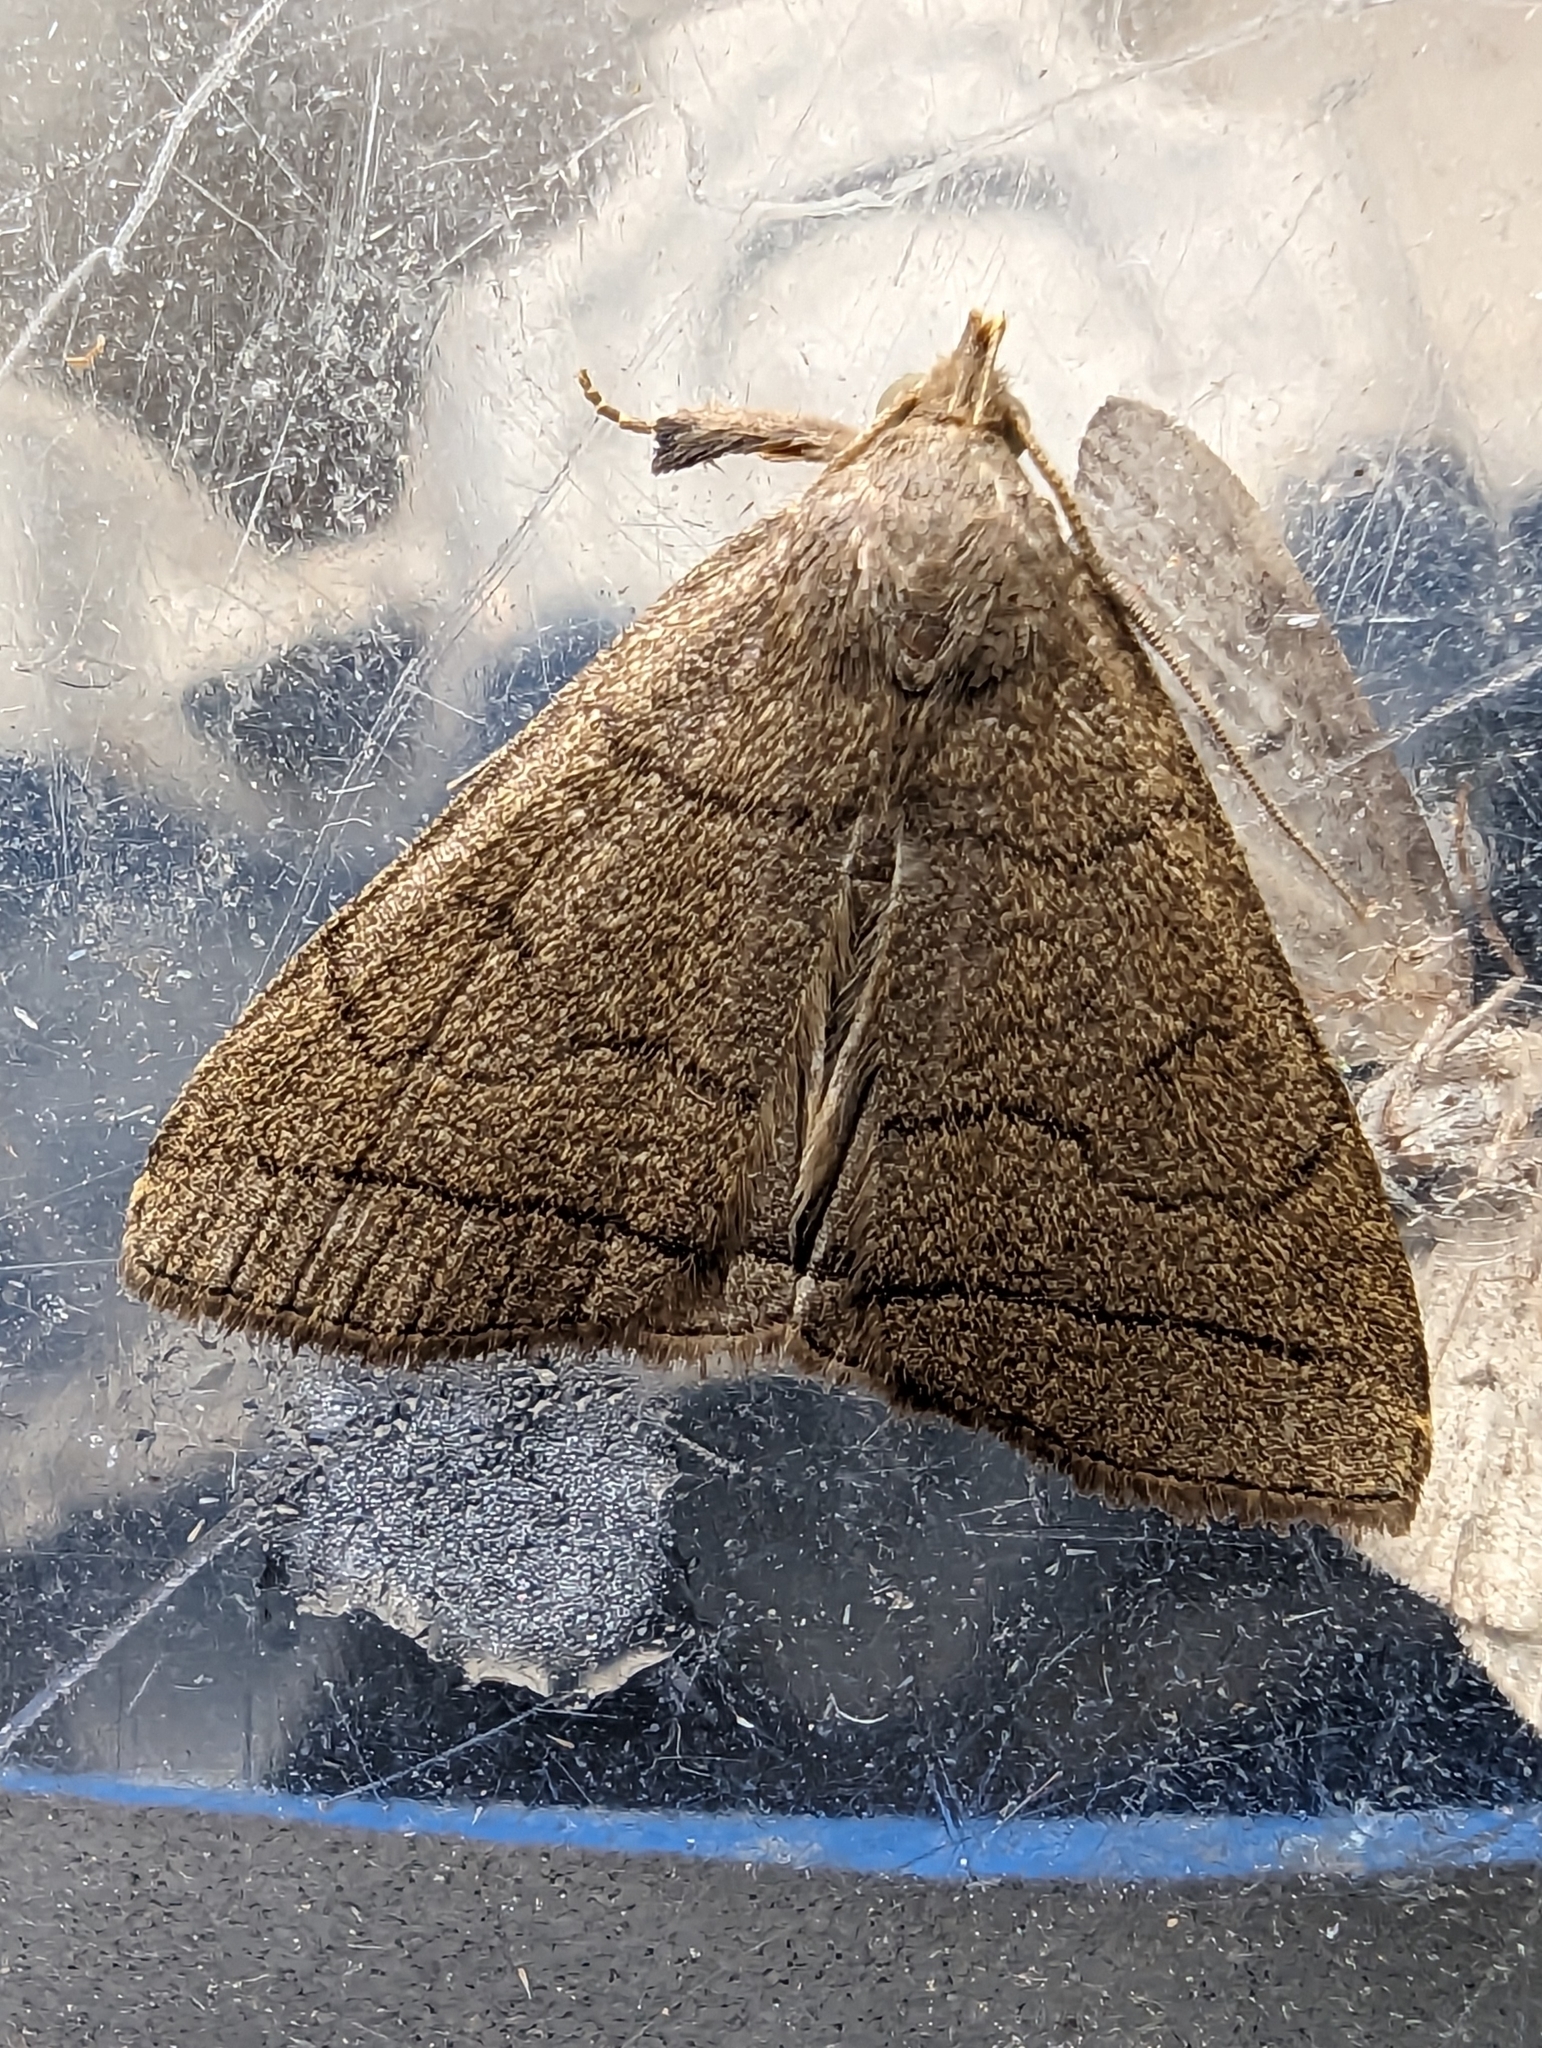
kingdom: Animalia
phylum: Arthropoda
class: Insecta
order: Lepidoptera
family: Erebidae
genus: Herminia
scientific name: Herminia tarsipennalis
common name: Fan-foot
